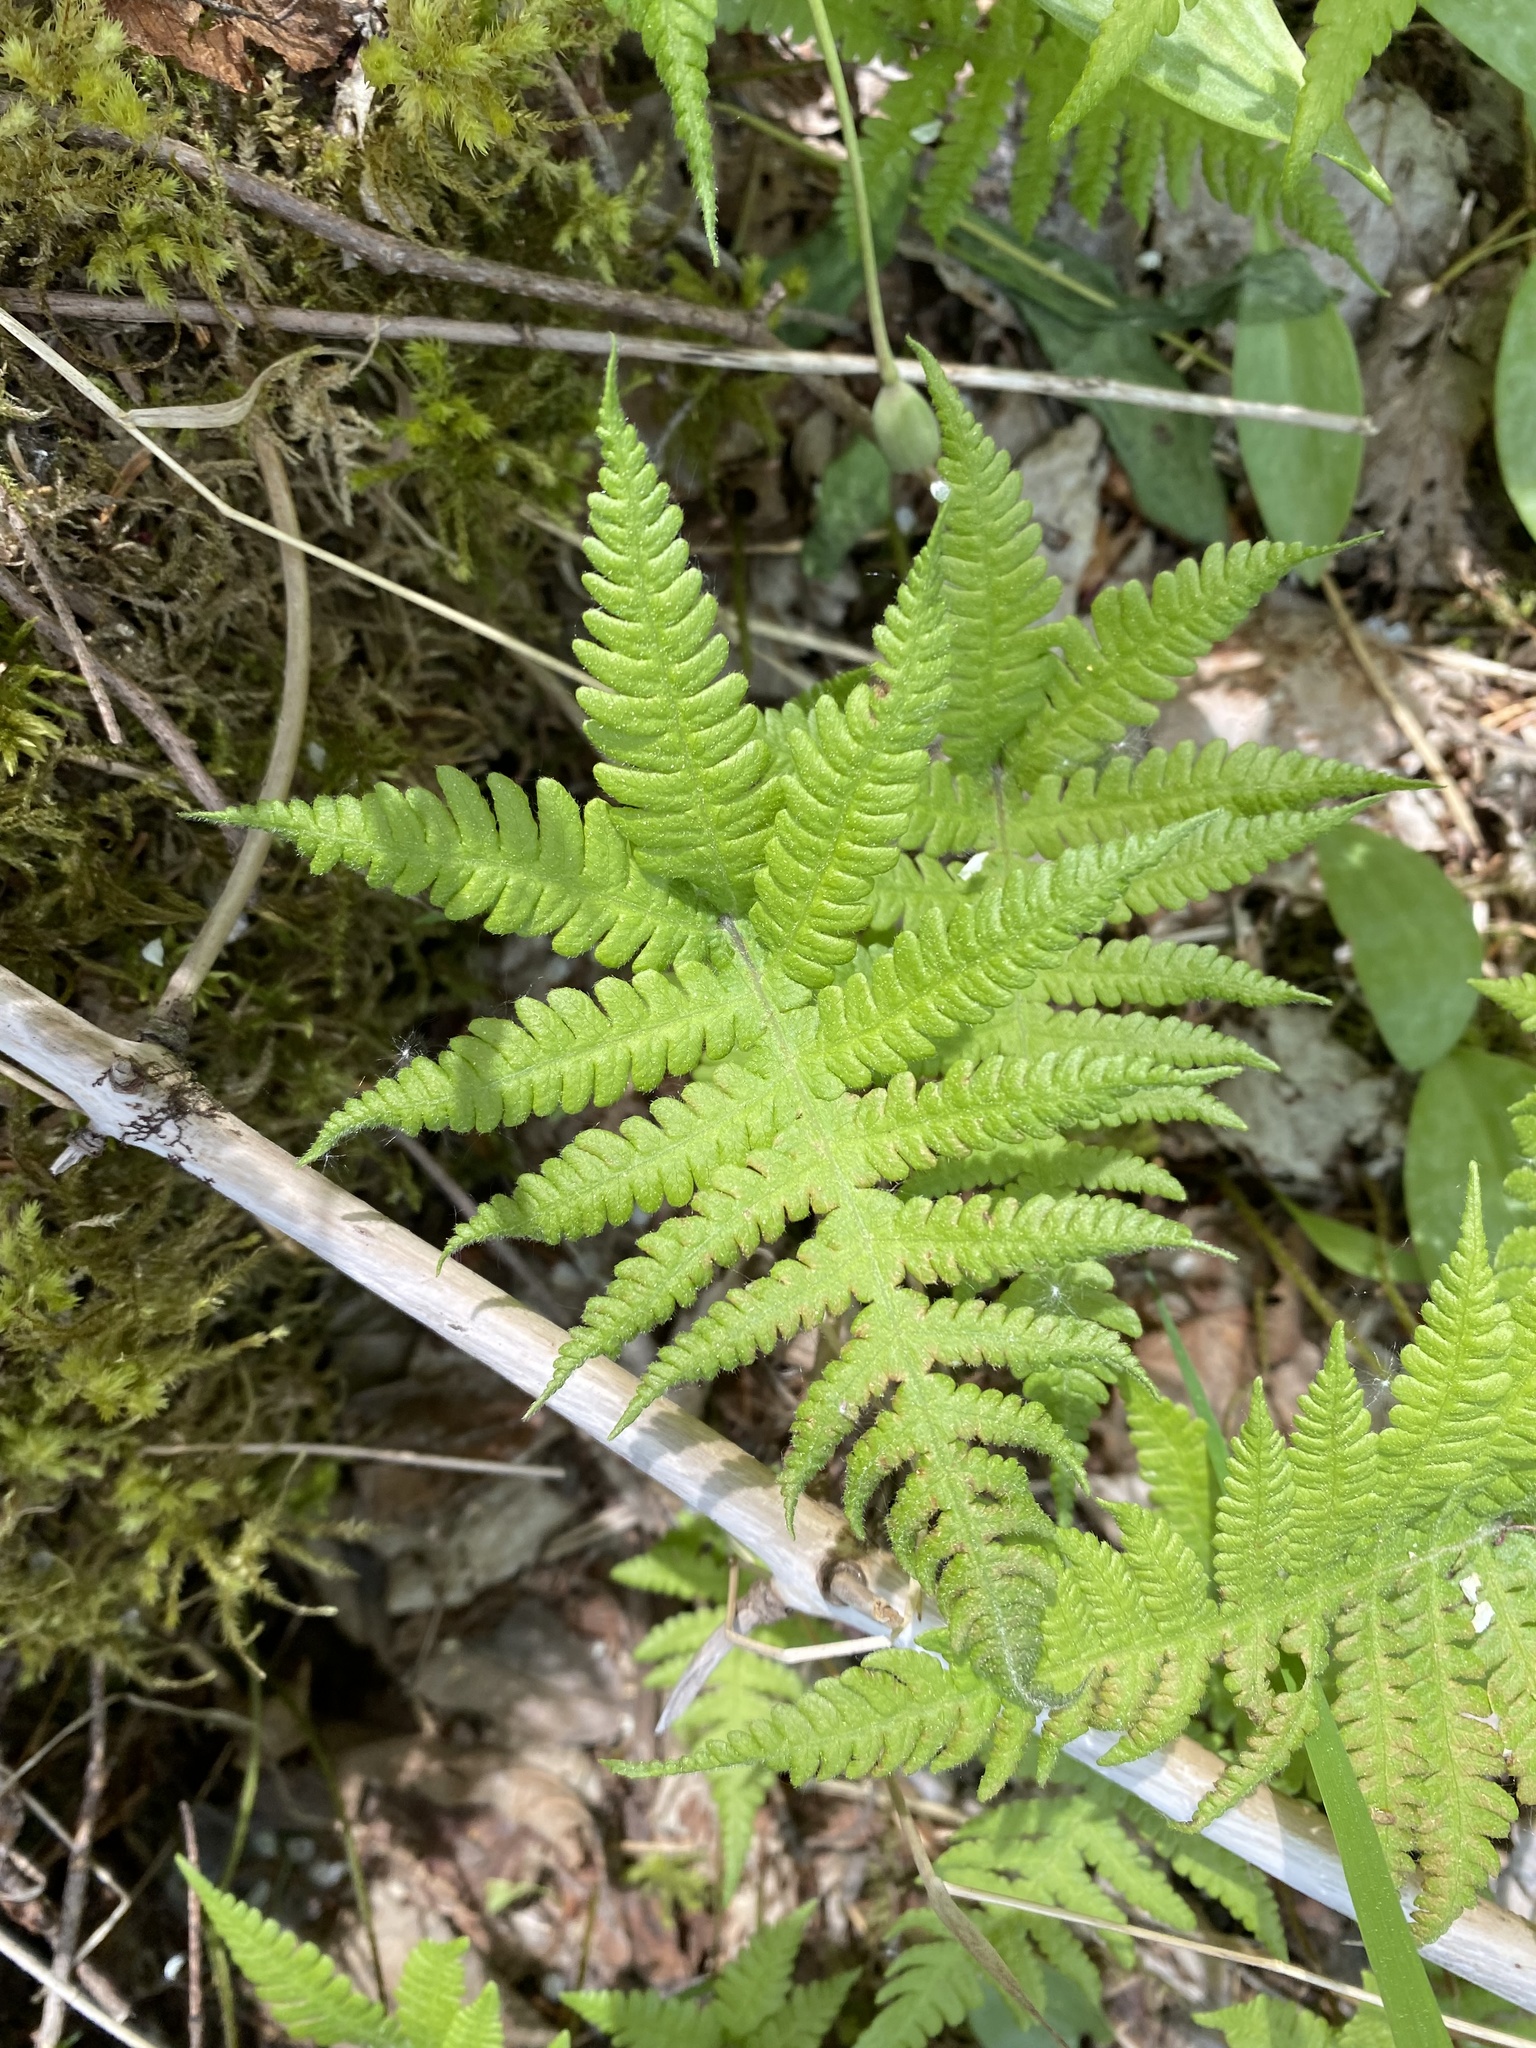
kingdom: Plantae
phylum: Tracheophyta
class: Polypodiopsida
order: Polypodiales
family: Thelypteridaceae
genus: Phegopteris
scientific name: Phegopteris connectilis
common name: Beech fern
